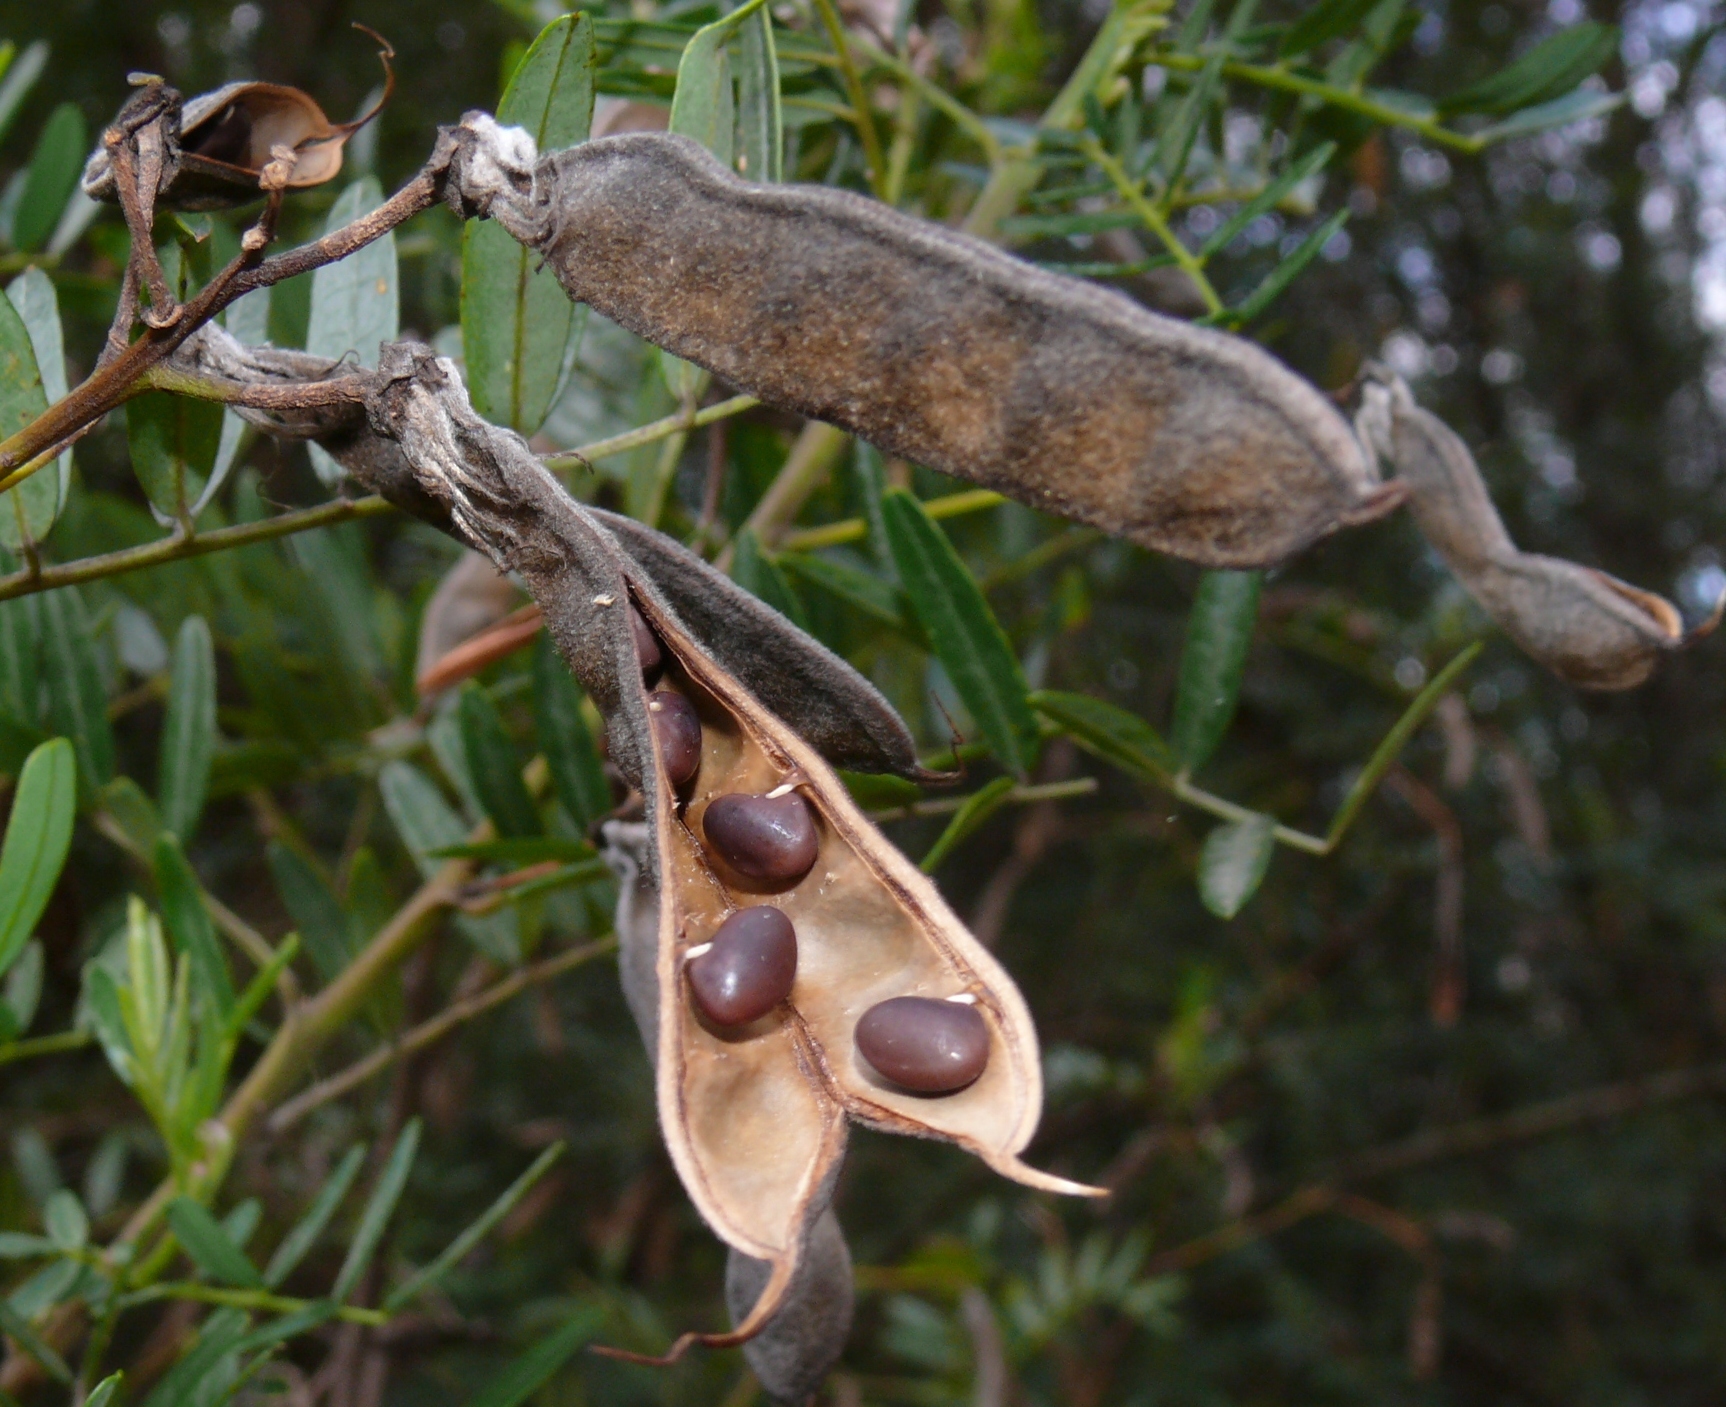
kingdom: Plantae
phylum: Tracheophyta
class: Magnoliopsida
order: Fabales
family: Fabaceae
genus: Virgilia
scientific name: Virgilia divaricata
